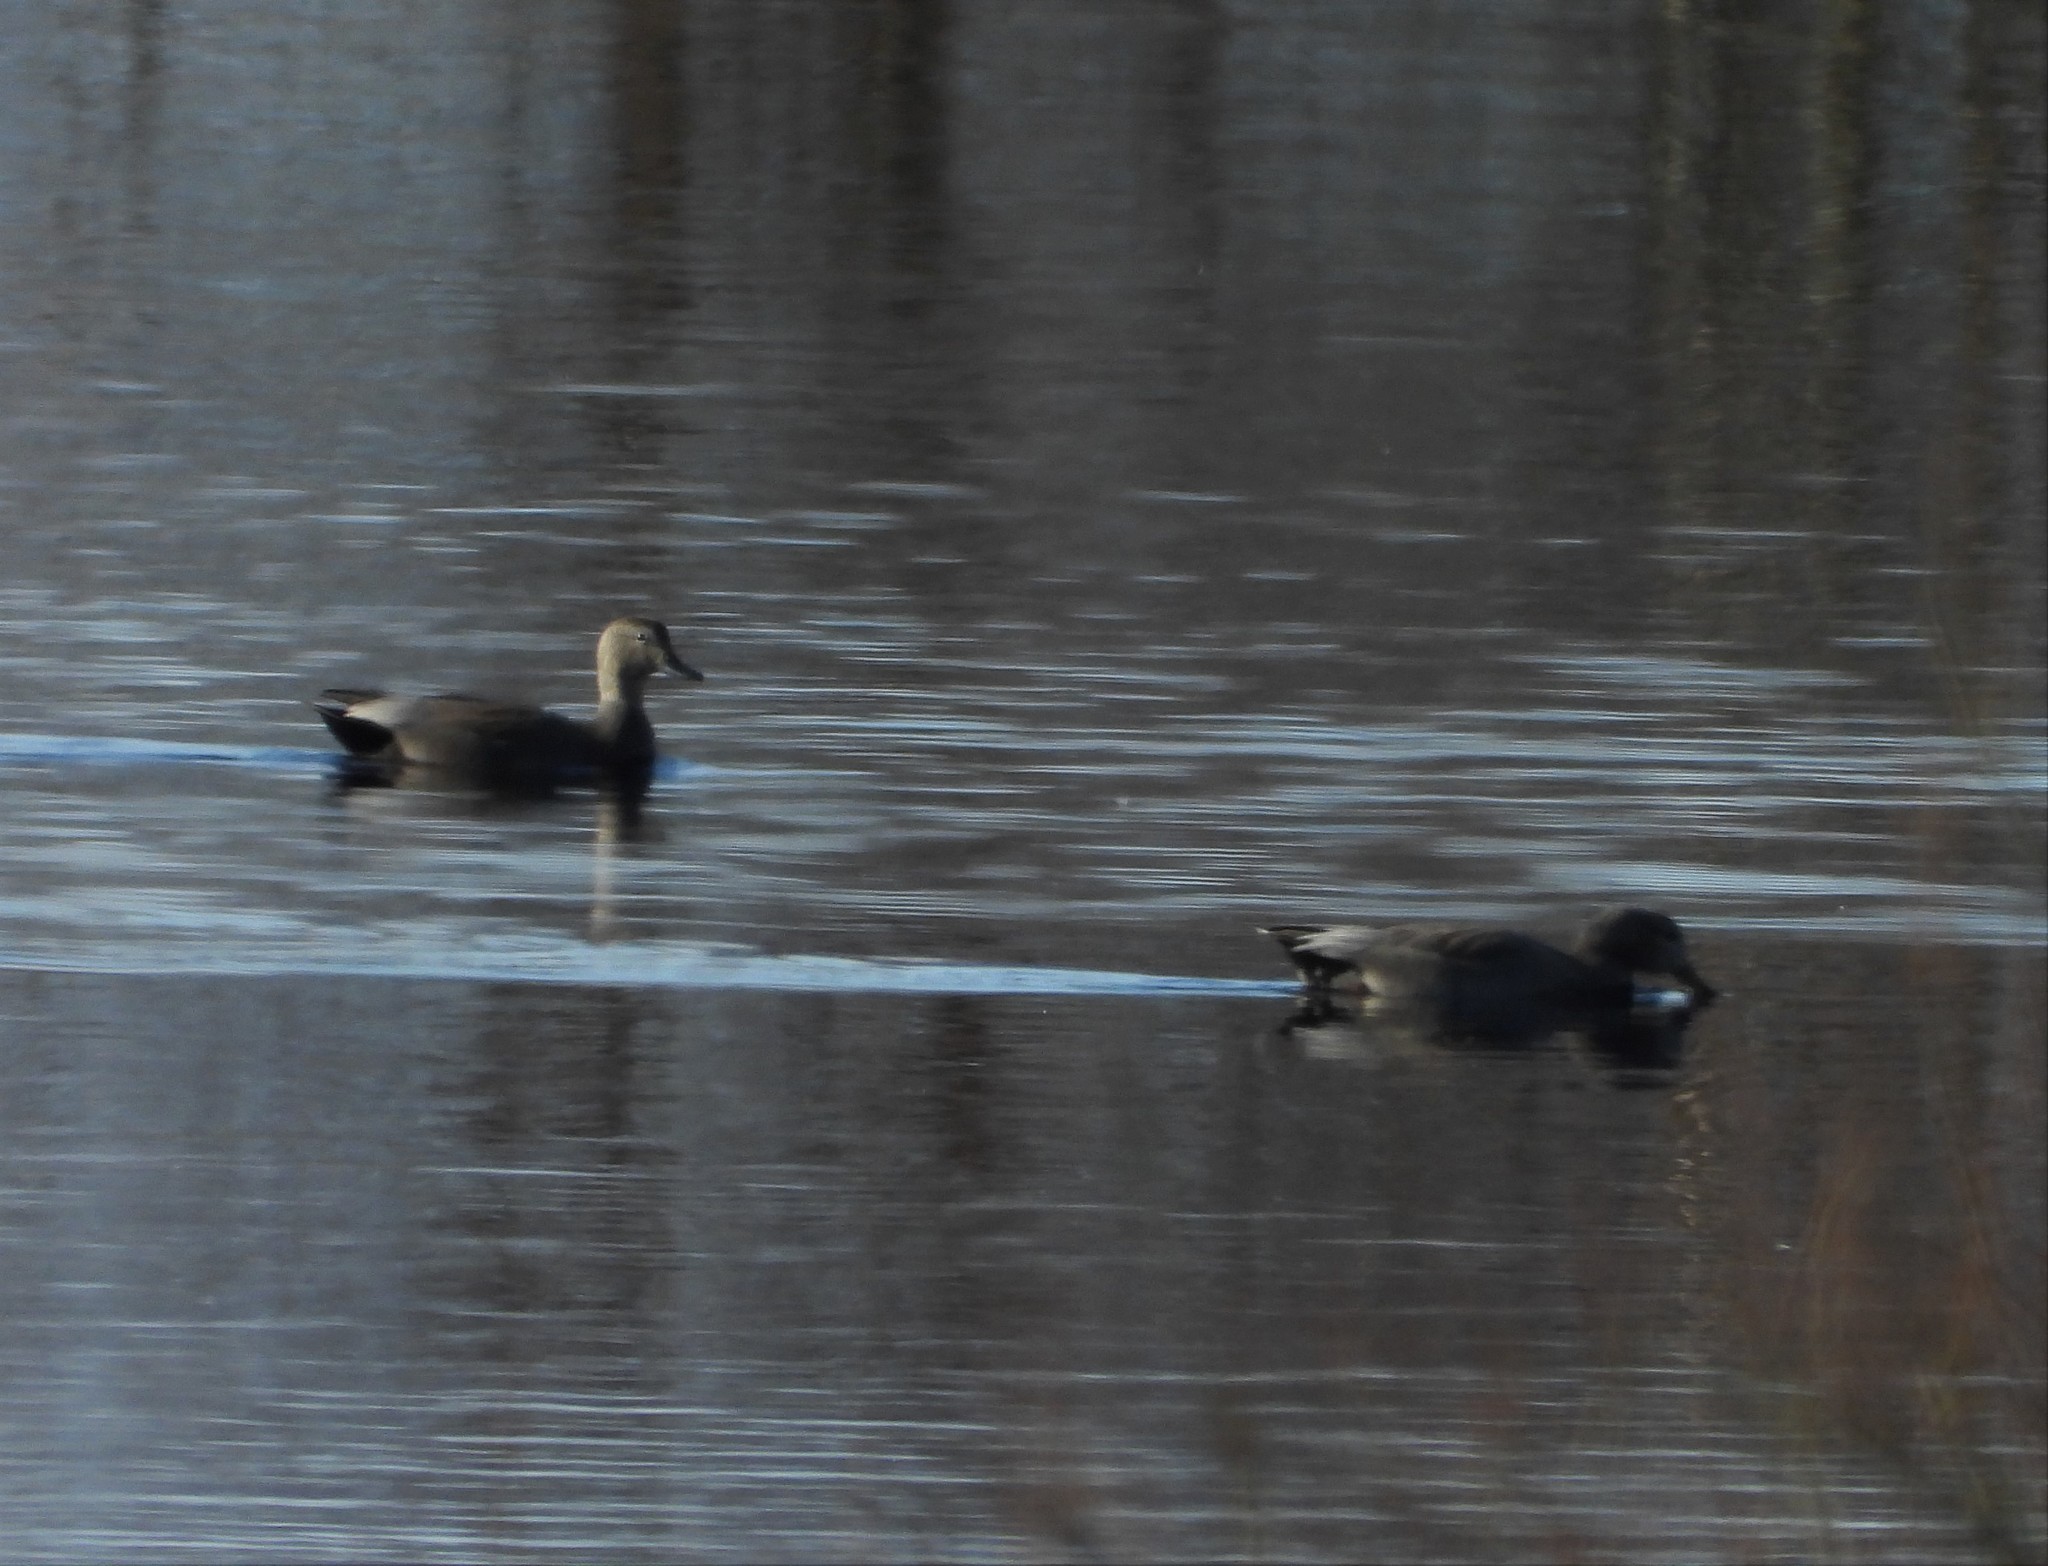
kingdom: Animalia
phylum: Chordata
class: Aves
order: Anseriformes
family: Anatidae
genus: Mareca
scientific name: Mareca strepera
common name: Gadwall
